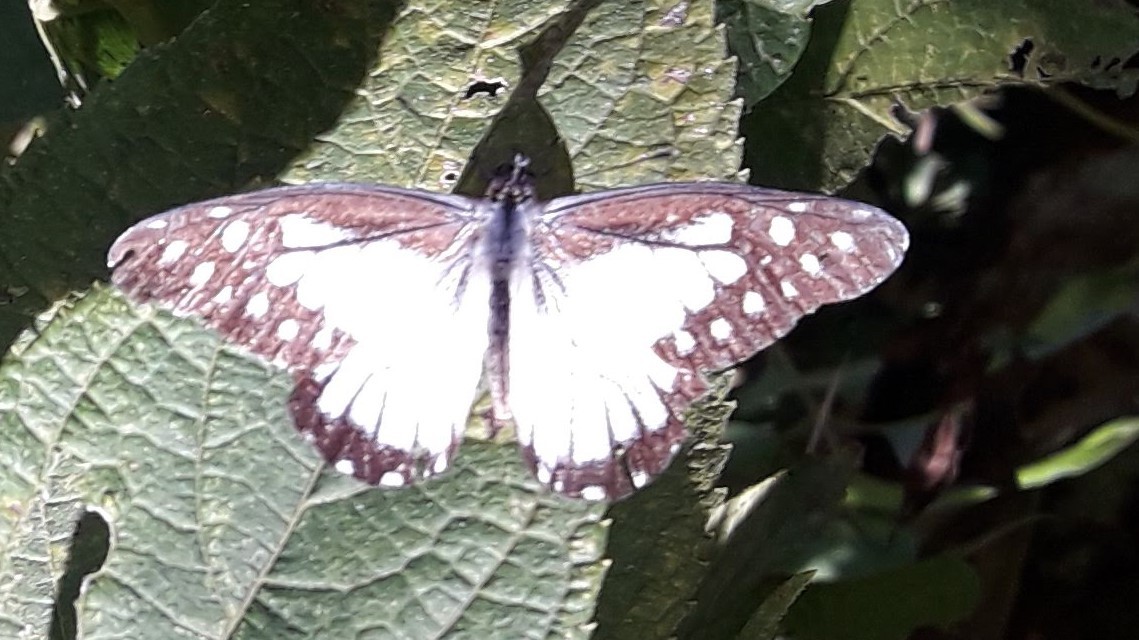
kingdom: Animalia
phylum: Arthropoda
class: Insecta
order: Lepidoptera
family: Pieridae
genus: Archonias
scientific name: Archonias hegemon
